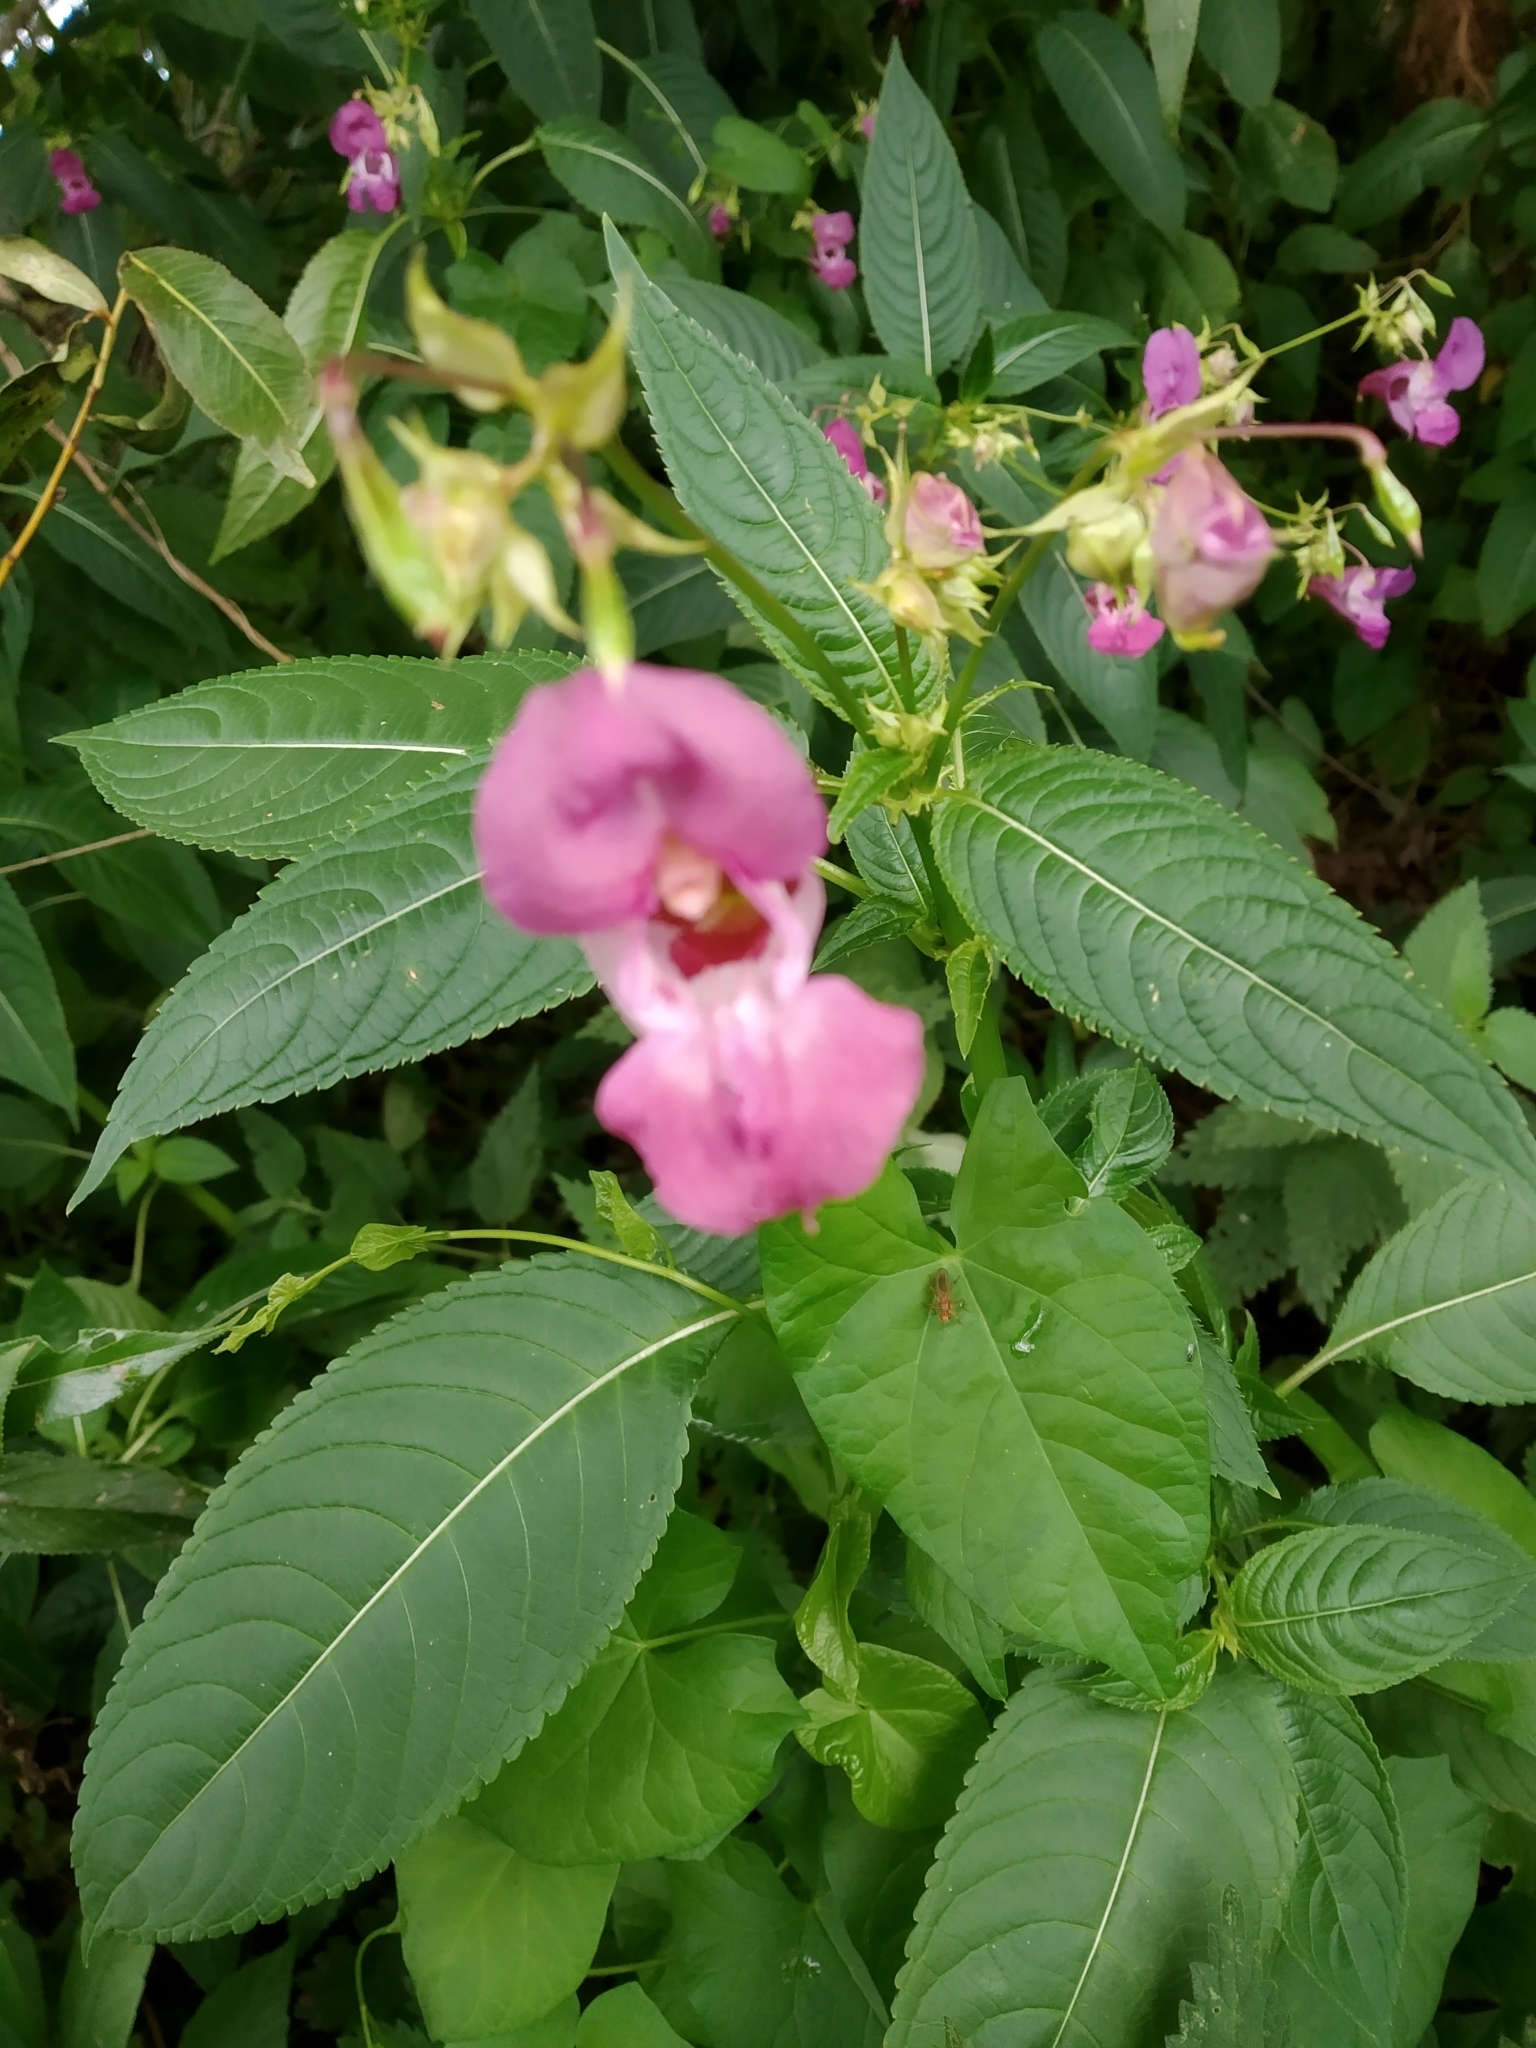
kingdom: Plantae
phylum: Tracheophyta
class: Magnoliopsida
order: Ericales
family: Balsaminaceae
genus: Impatiens
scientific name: Impatiens glandulifera
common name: Himalayan balsam
